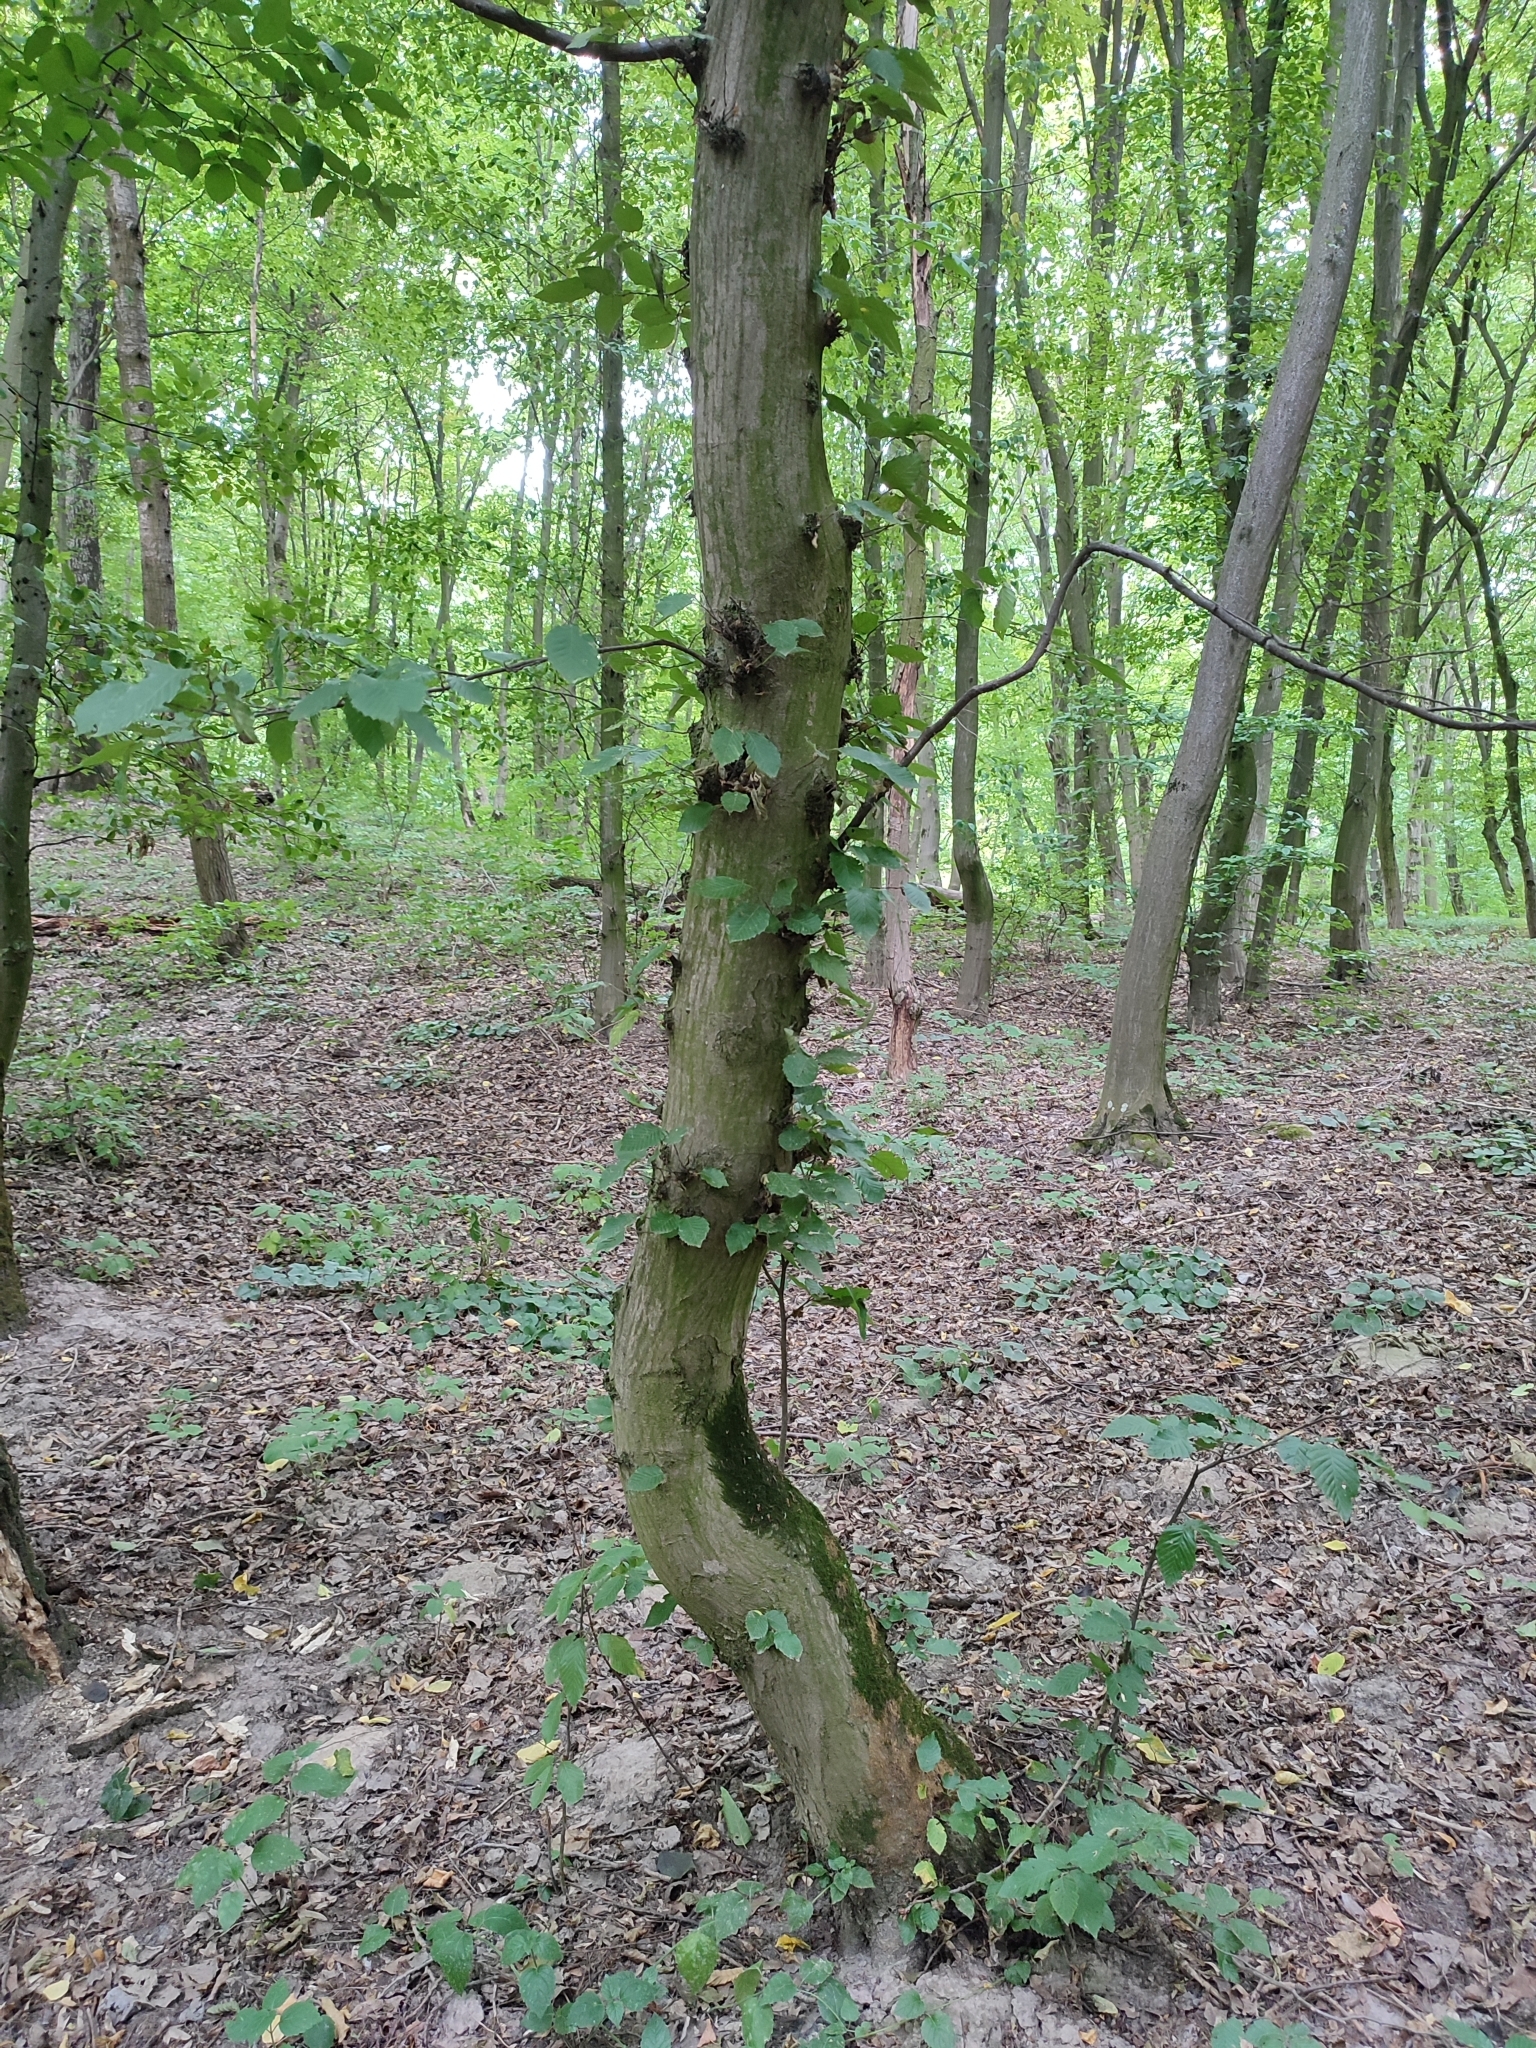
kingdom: Plantae
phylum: Tracheophyta
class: Magnoliopsida
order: Fagales
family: Betulaceae
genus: Carpinus
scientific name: Carpinus betulus
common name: Hornbeam
